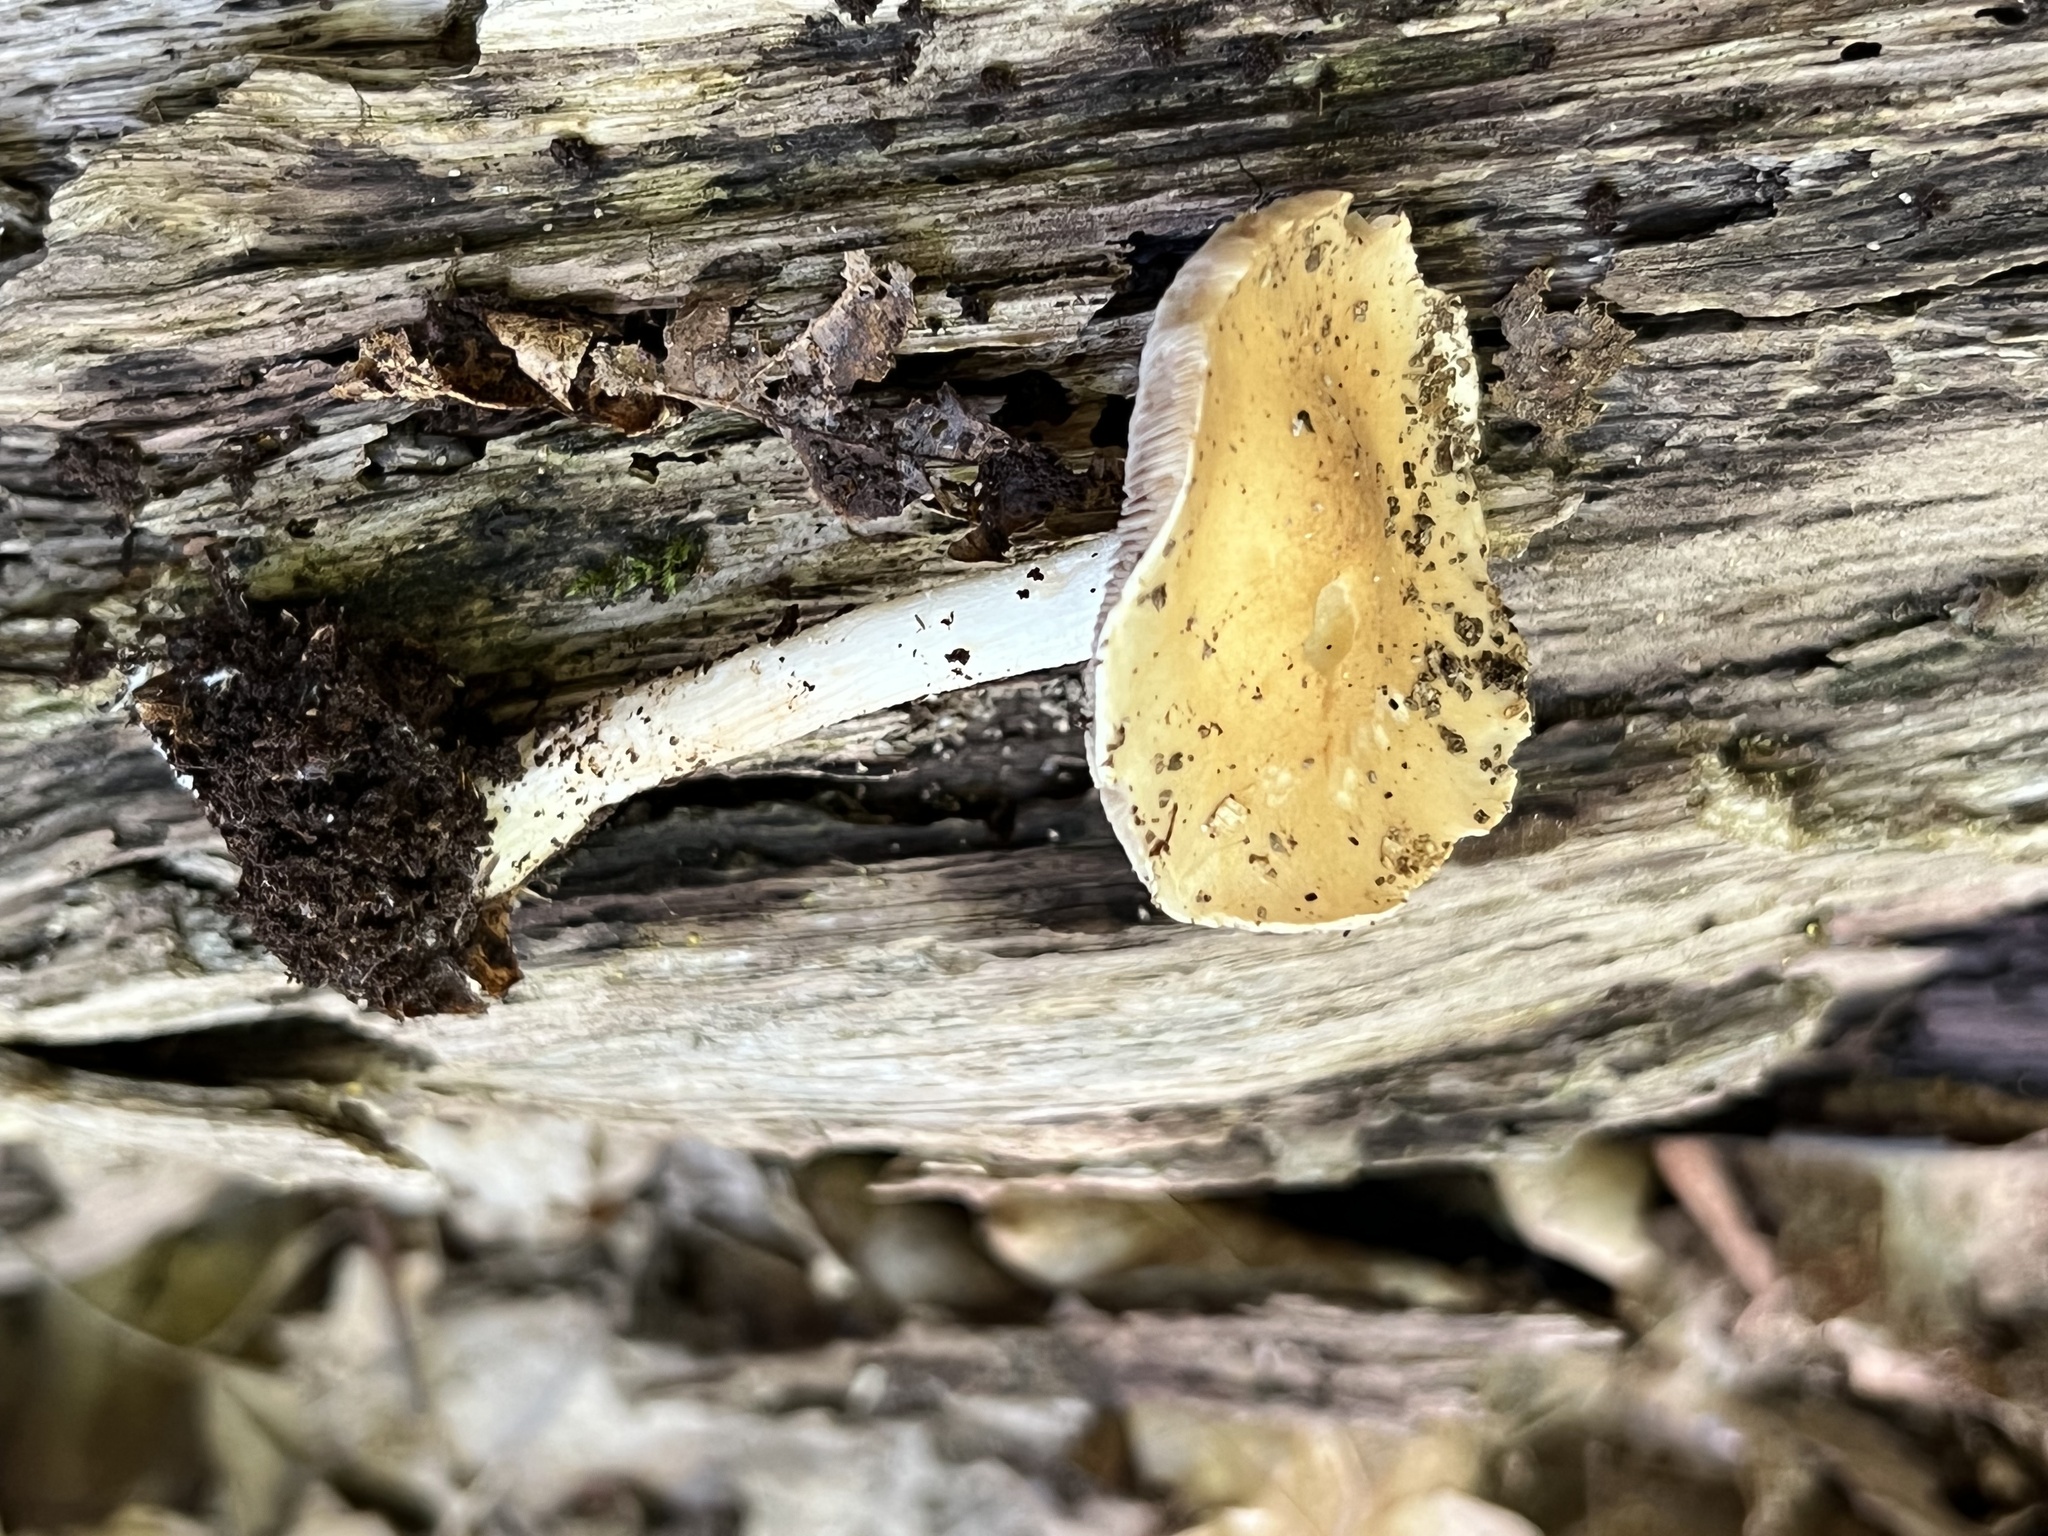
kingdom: Fungi
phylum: Basidiomycota
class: Agaricomycetes
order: Agaricales
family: Hymenogastraceae
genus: Hebeloma
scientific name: Hebeloma albidulum
